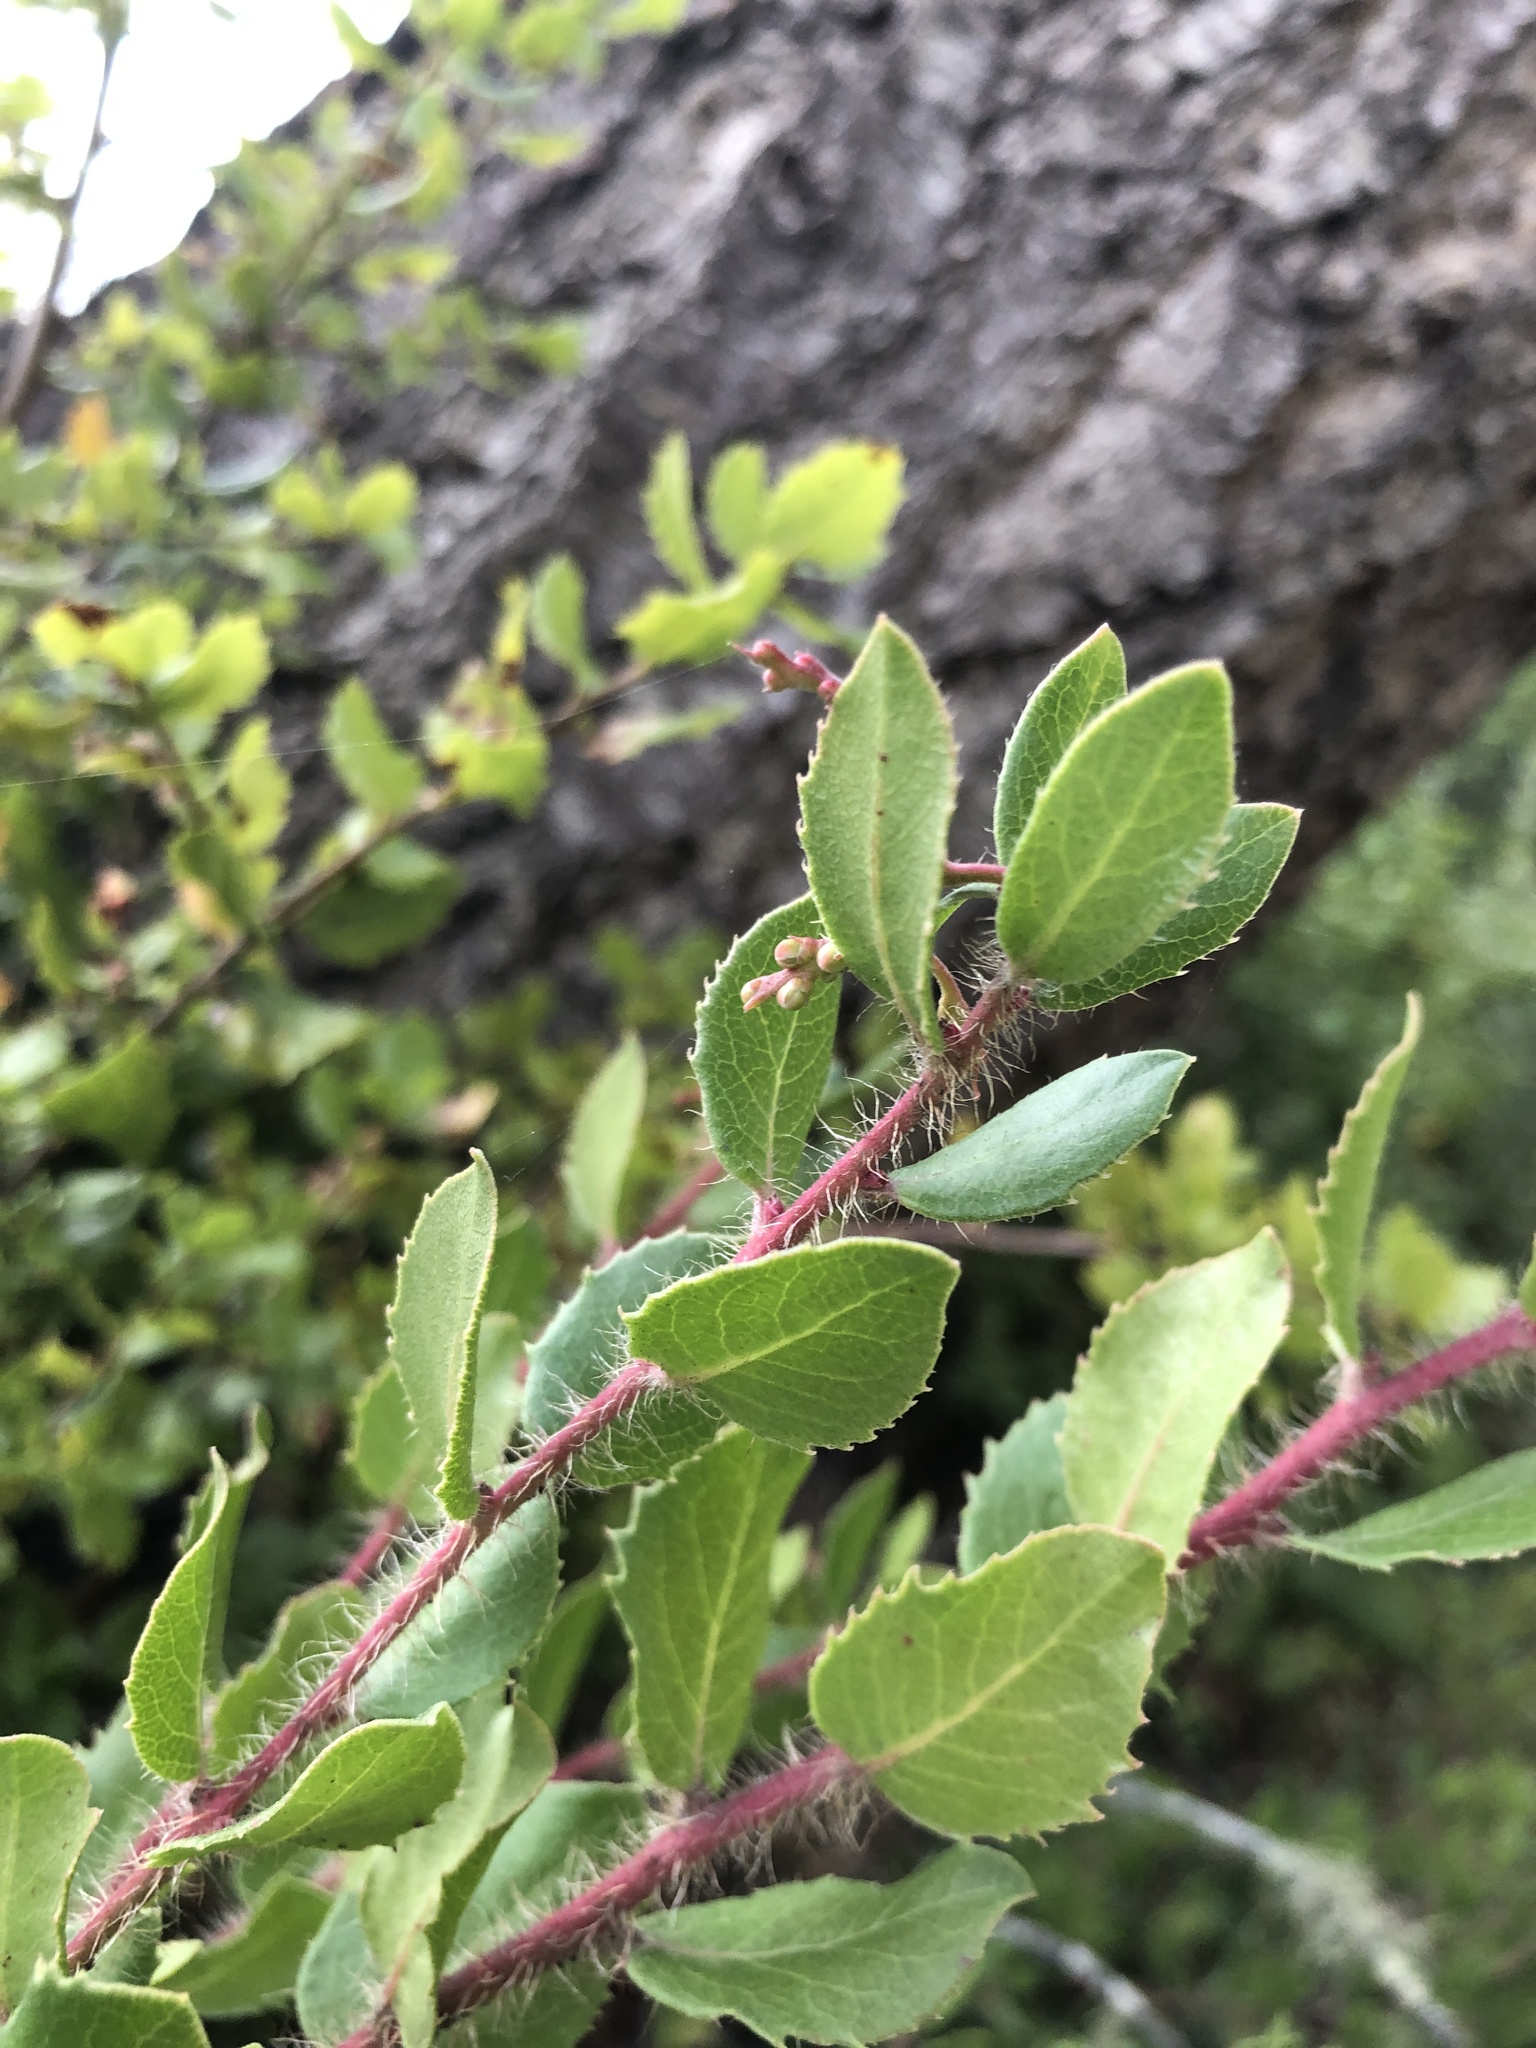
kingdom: Plantae
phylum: Tracheophyta
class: Magnoliopsida
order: Ericales
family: Ericaceae
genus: Arctostaphylos
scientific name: Arctostaphylos nummularia
